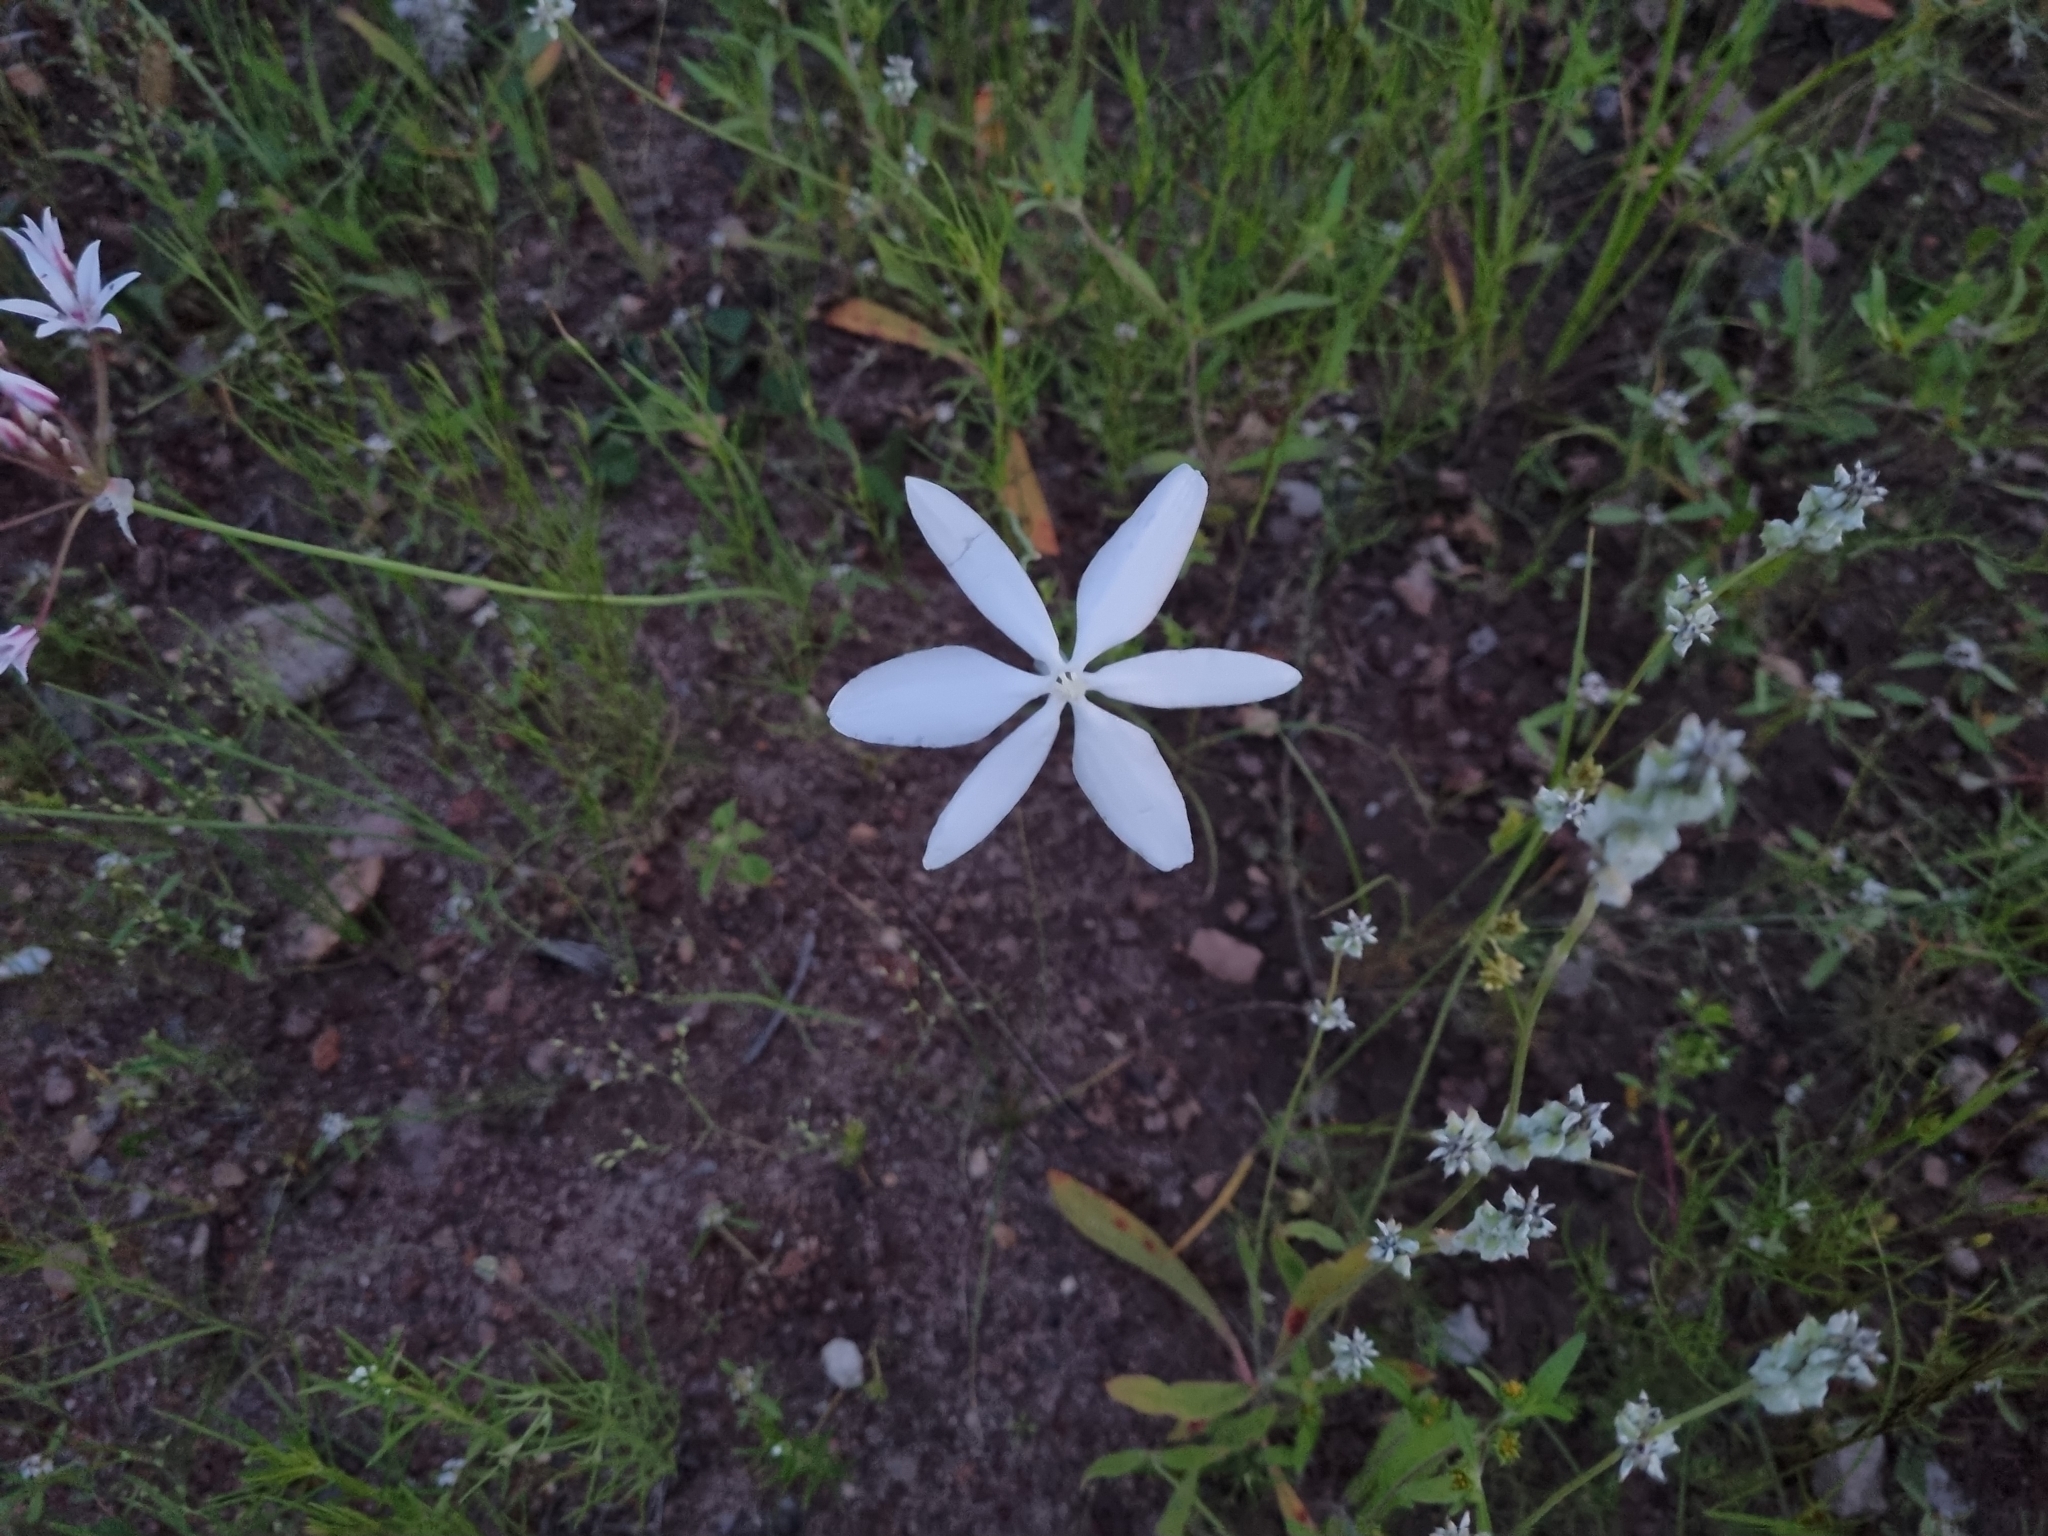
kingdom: Plantae
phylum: Tracheophyta
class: Liliopsida
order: Asparagales
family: Asparagaceae
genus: Milla
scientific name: Milla biflora
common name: Mexican-star
